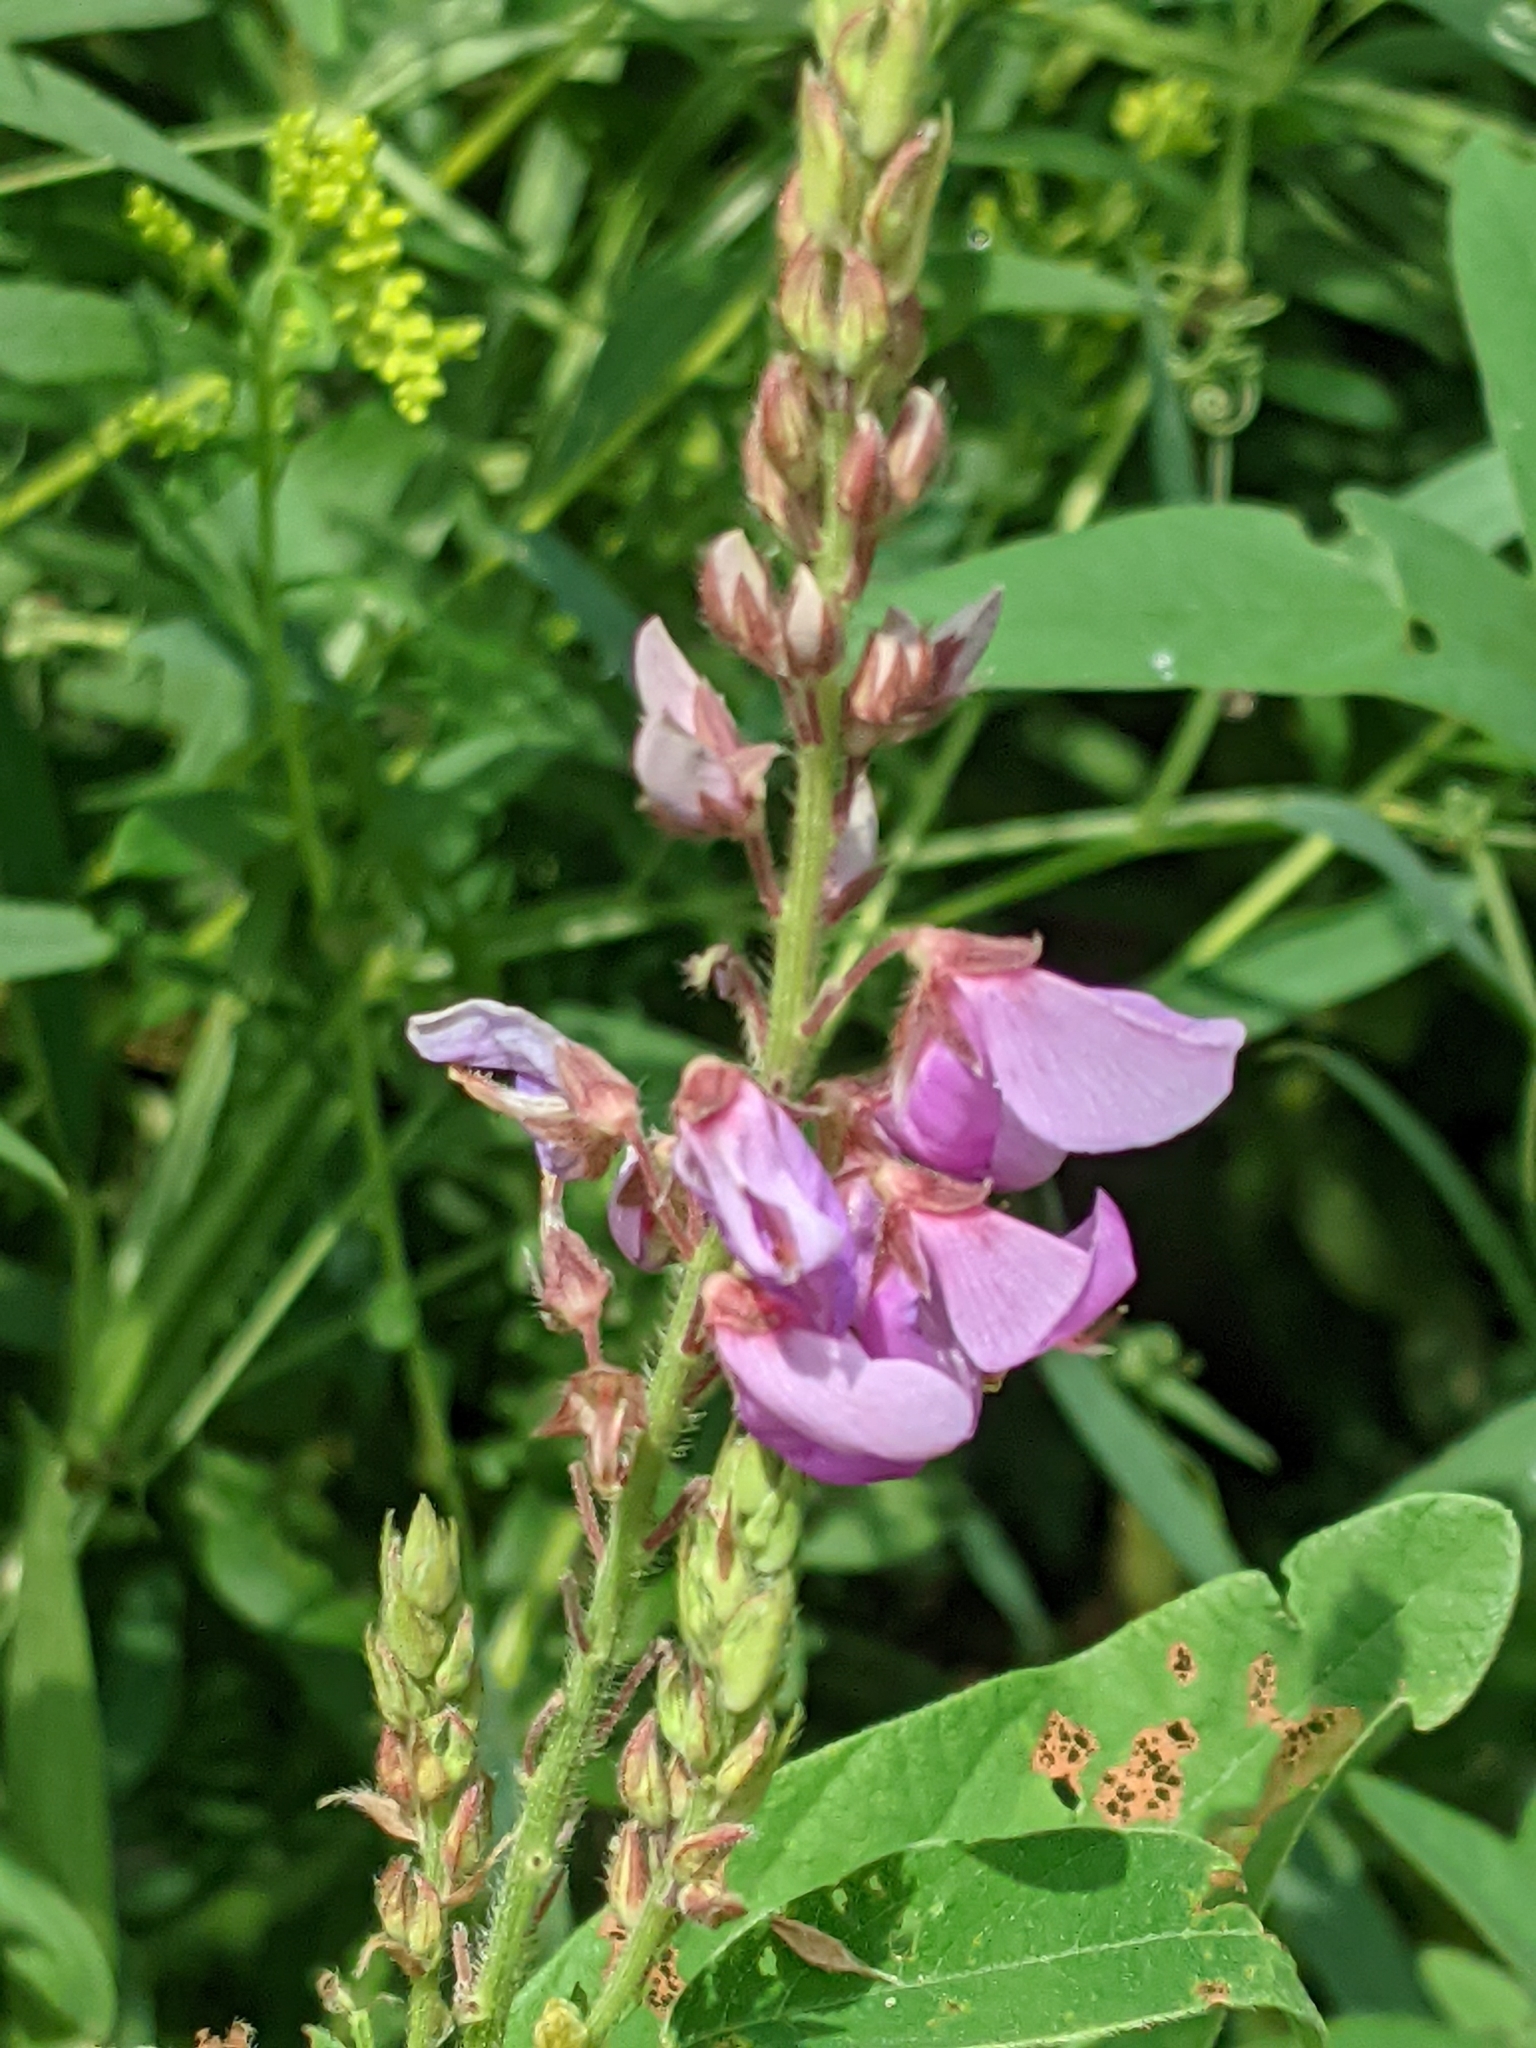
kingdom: Plantae
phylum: Tracheophyta
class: Magnoliopsida
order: Fabales
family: Fabaceae
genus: Desmodium
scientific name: Desmodium canadense
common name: Canada tick-trefoil
